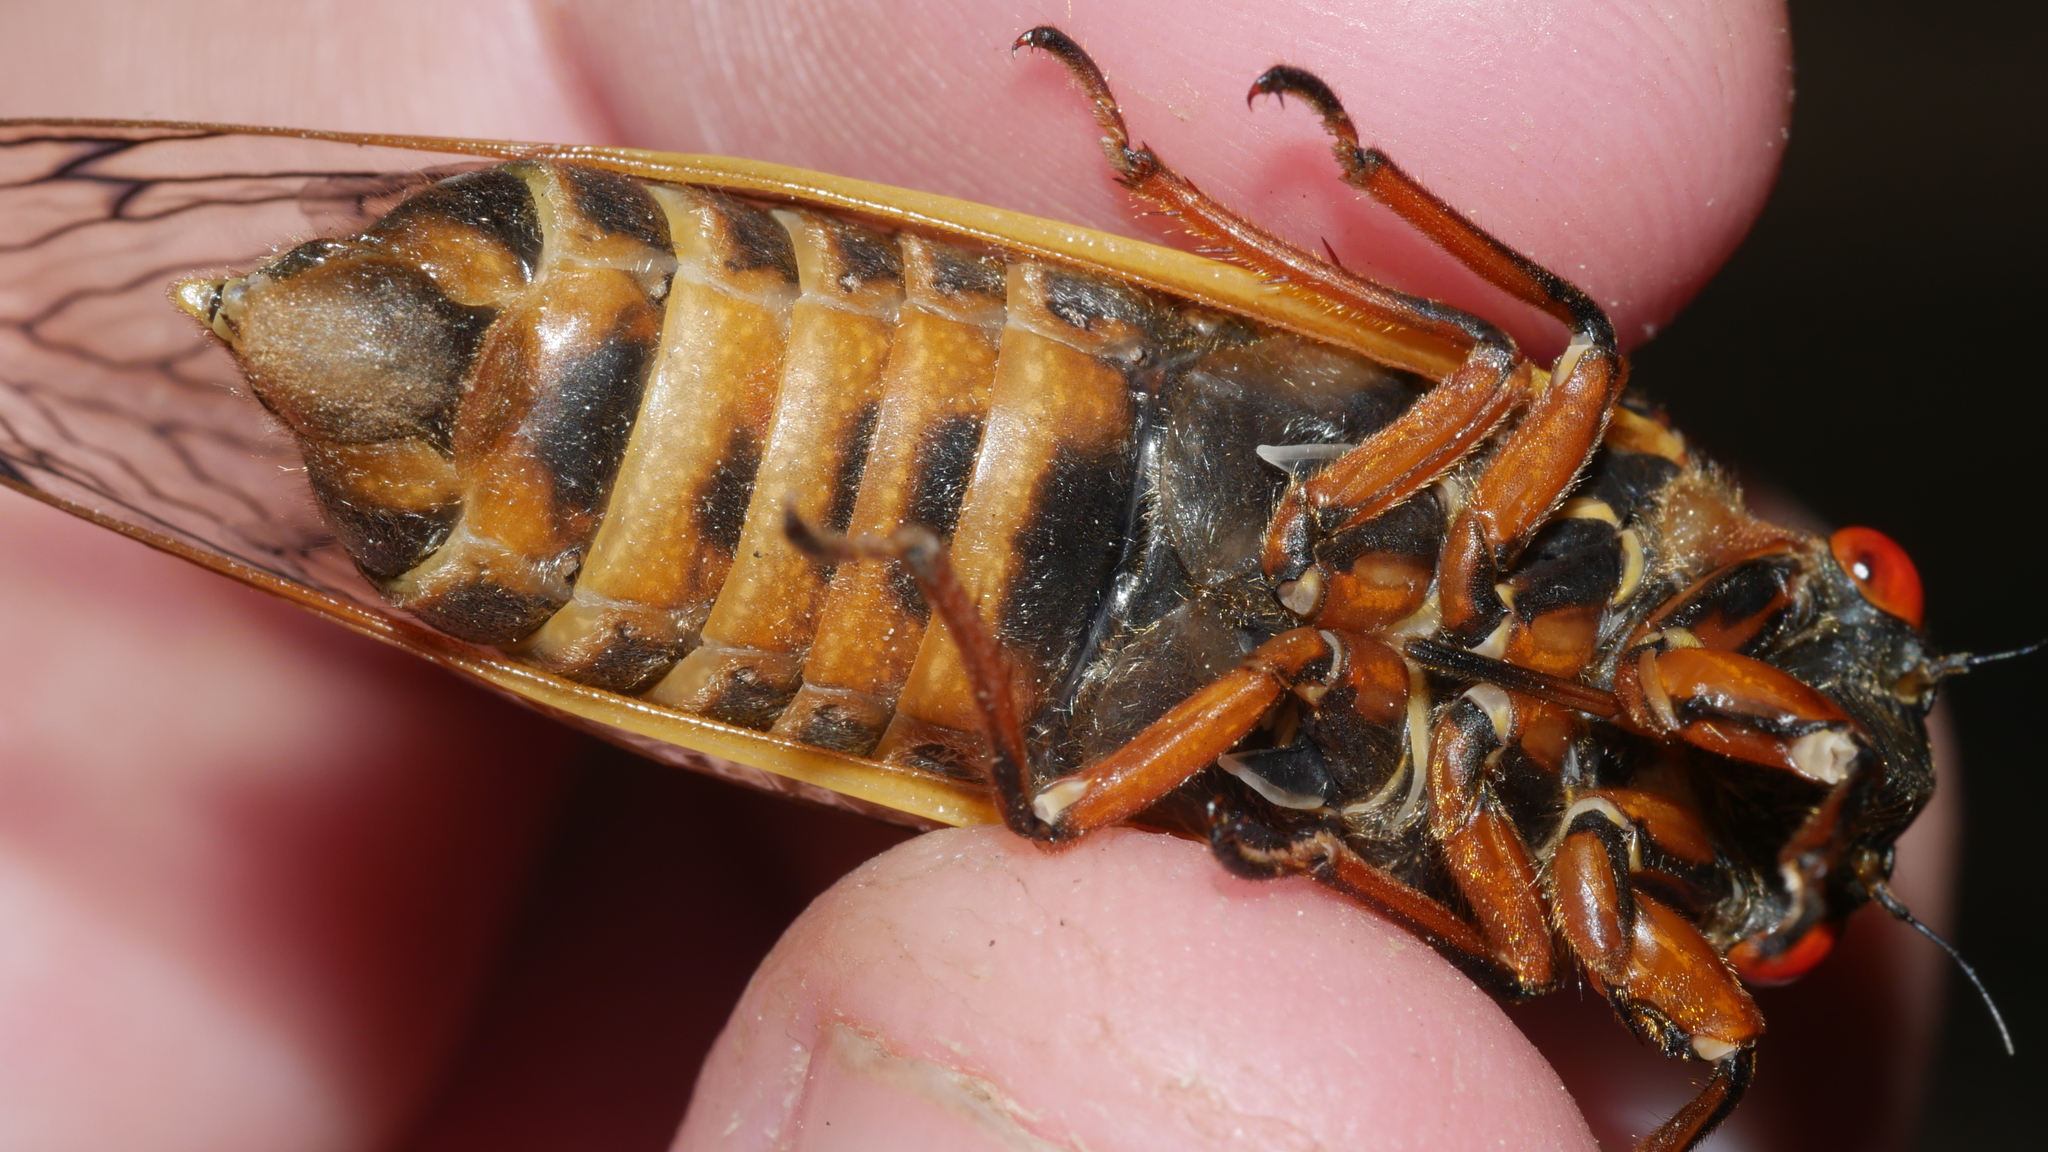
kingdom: Animalia
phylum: Arthropoda
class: Insecta
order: Hemiptera
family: Cicadidae
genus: Magicicada
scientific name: Magicicada septendecim
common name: Periodical cicada
